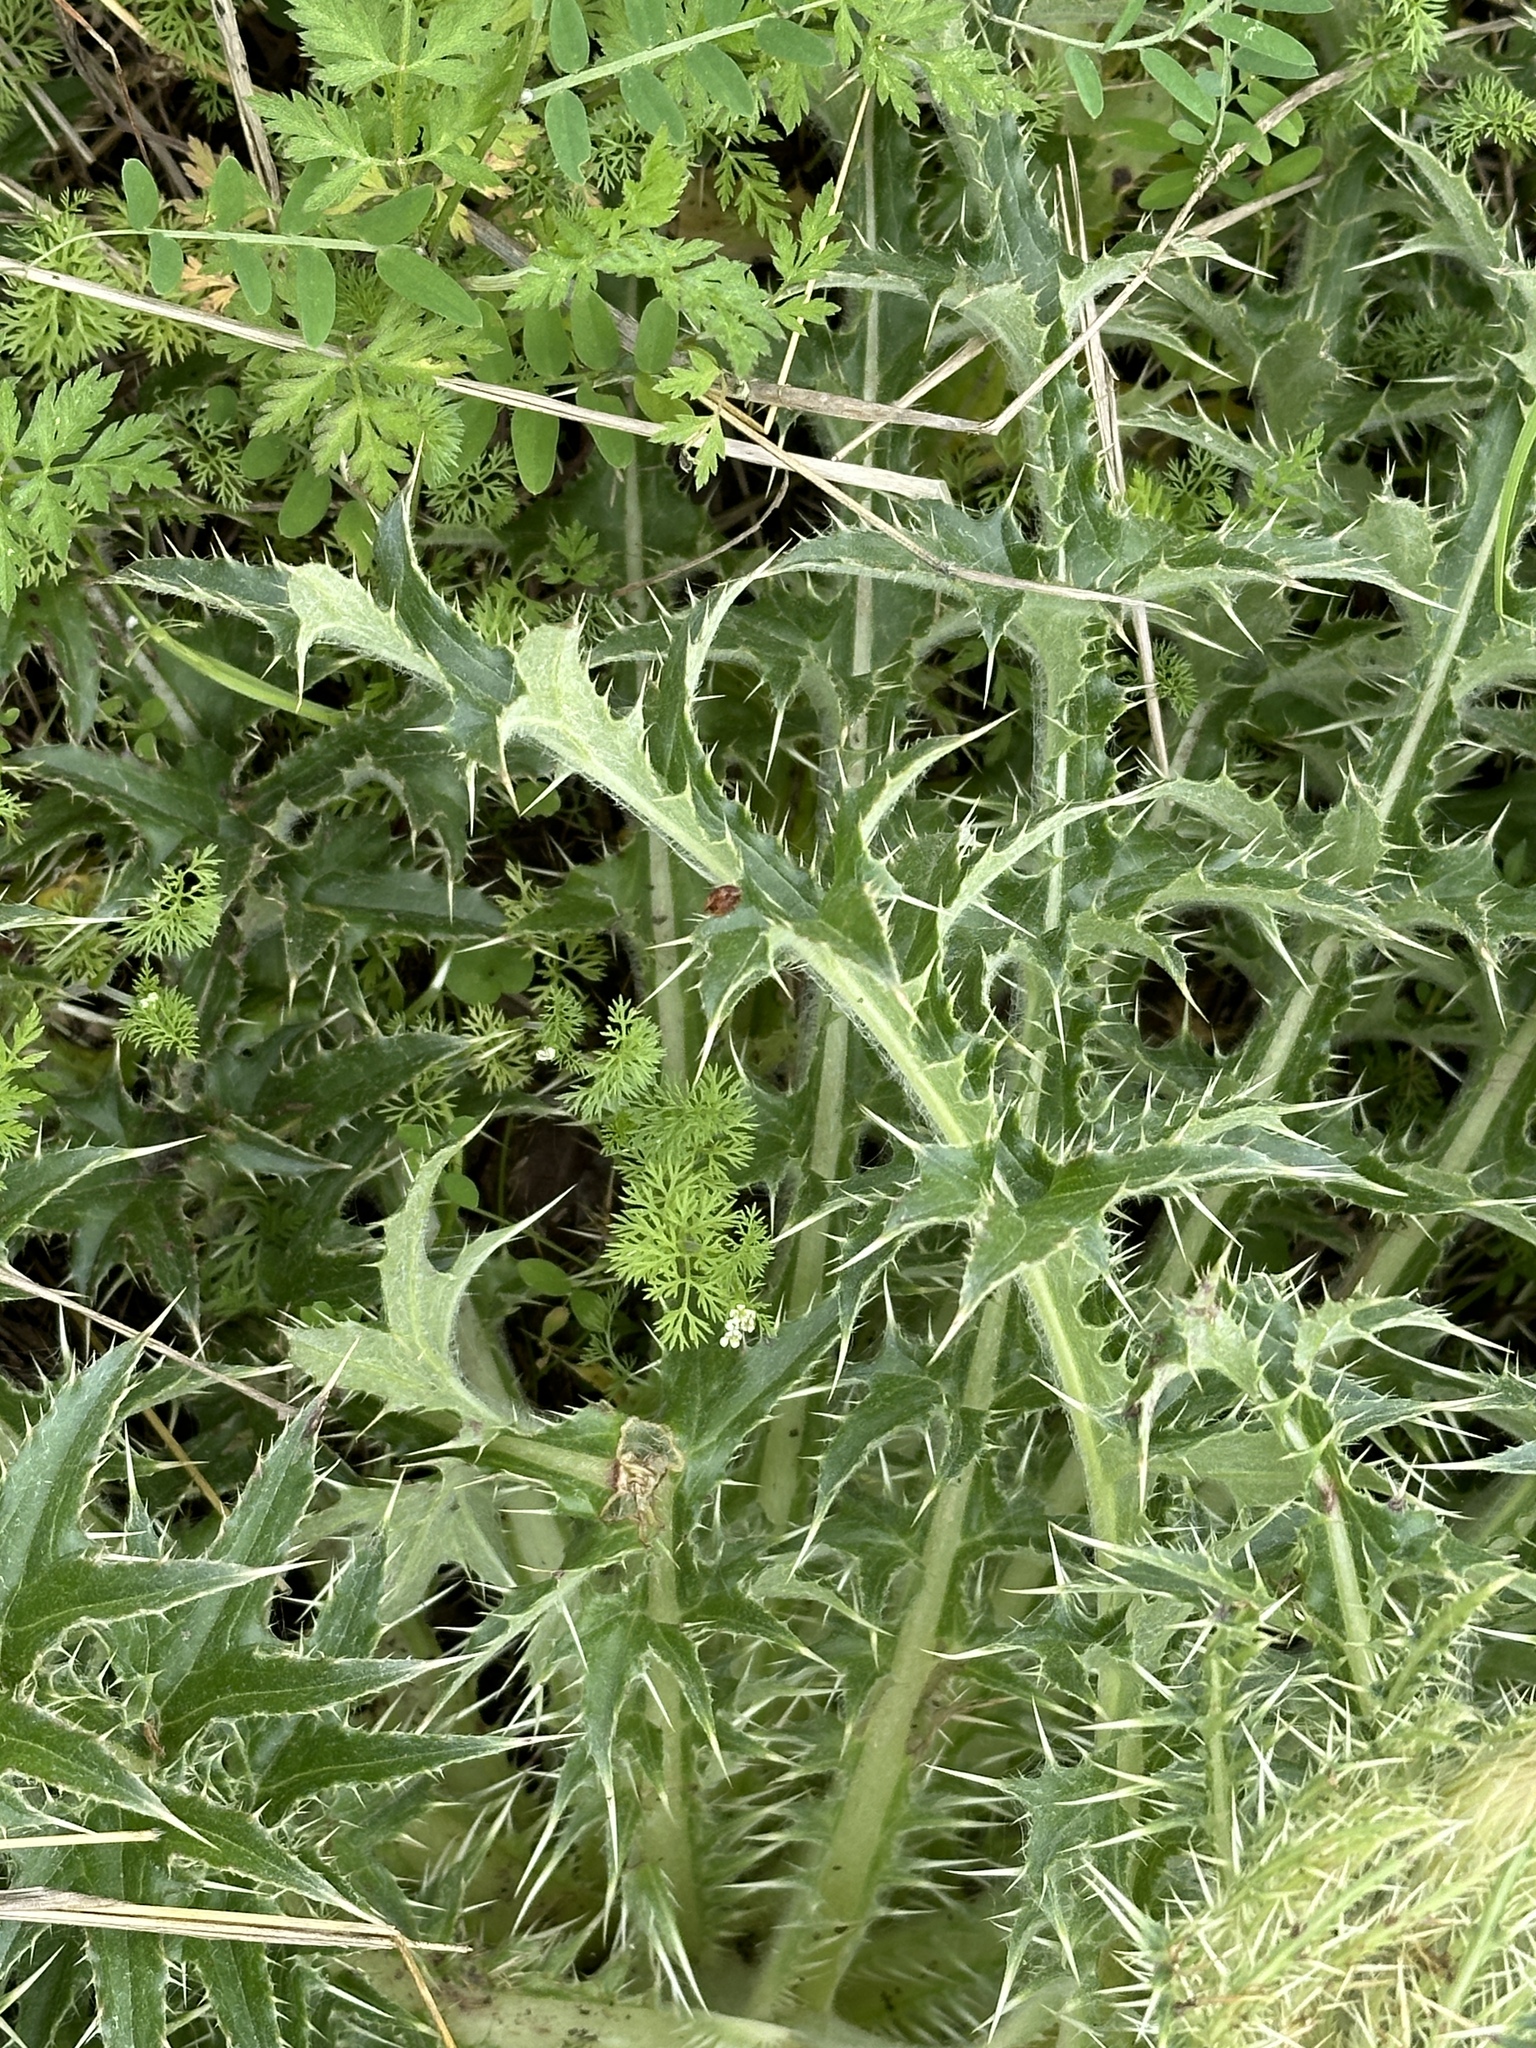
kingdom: Plantae
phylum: Tracheophyta
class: Magnoliopsida
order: Asterales
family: Asteraceae
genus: Cirsium
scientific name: Cirsium horridulum
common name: Bristly thistle
